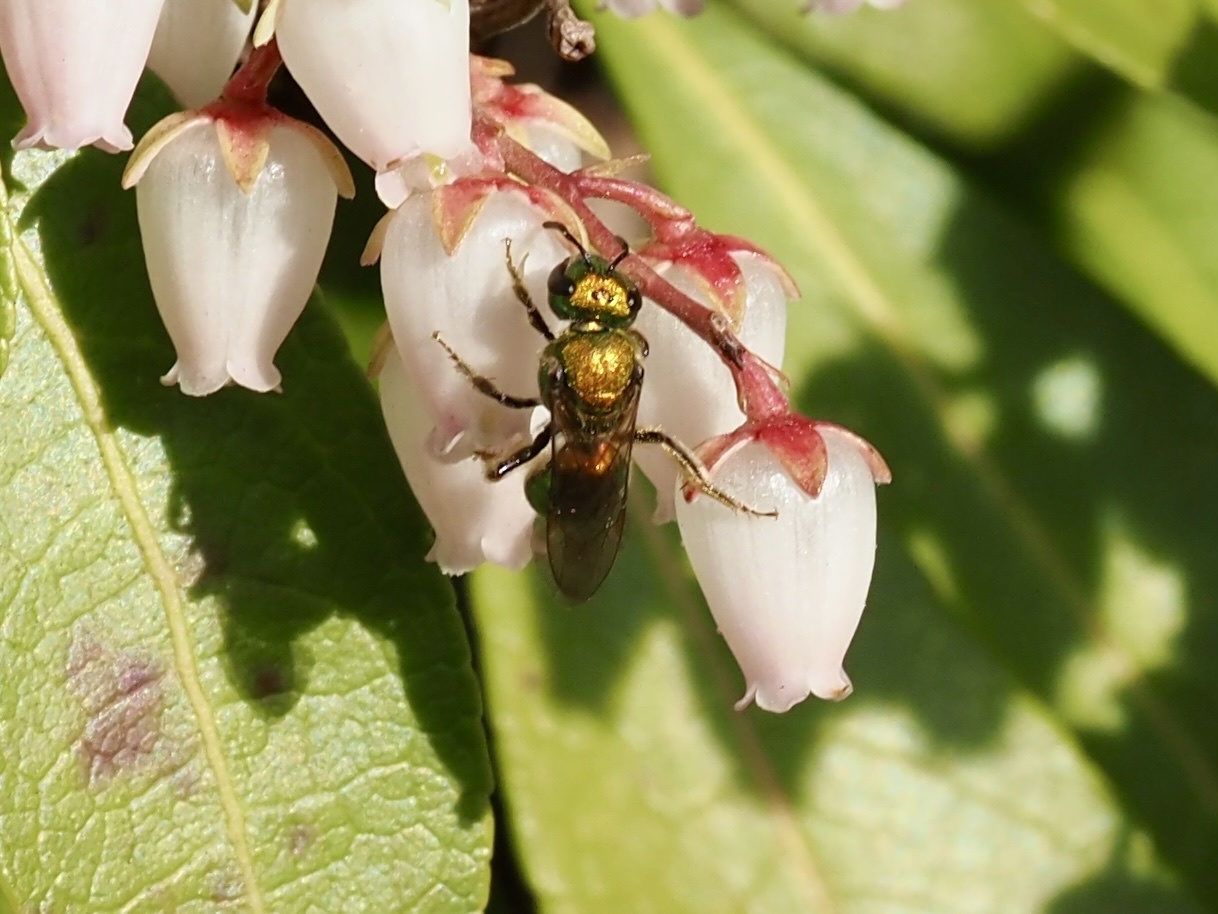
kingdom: Animalia
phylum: Arthropoda
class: Insecta
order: Hymenoptera
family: Halictidae
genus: Augochlora
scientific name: Augochlora pura
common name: Pure green sweat bee
